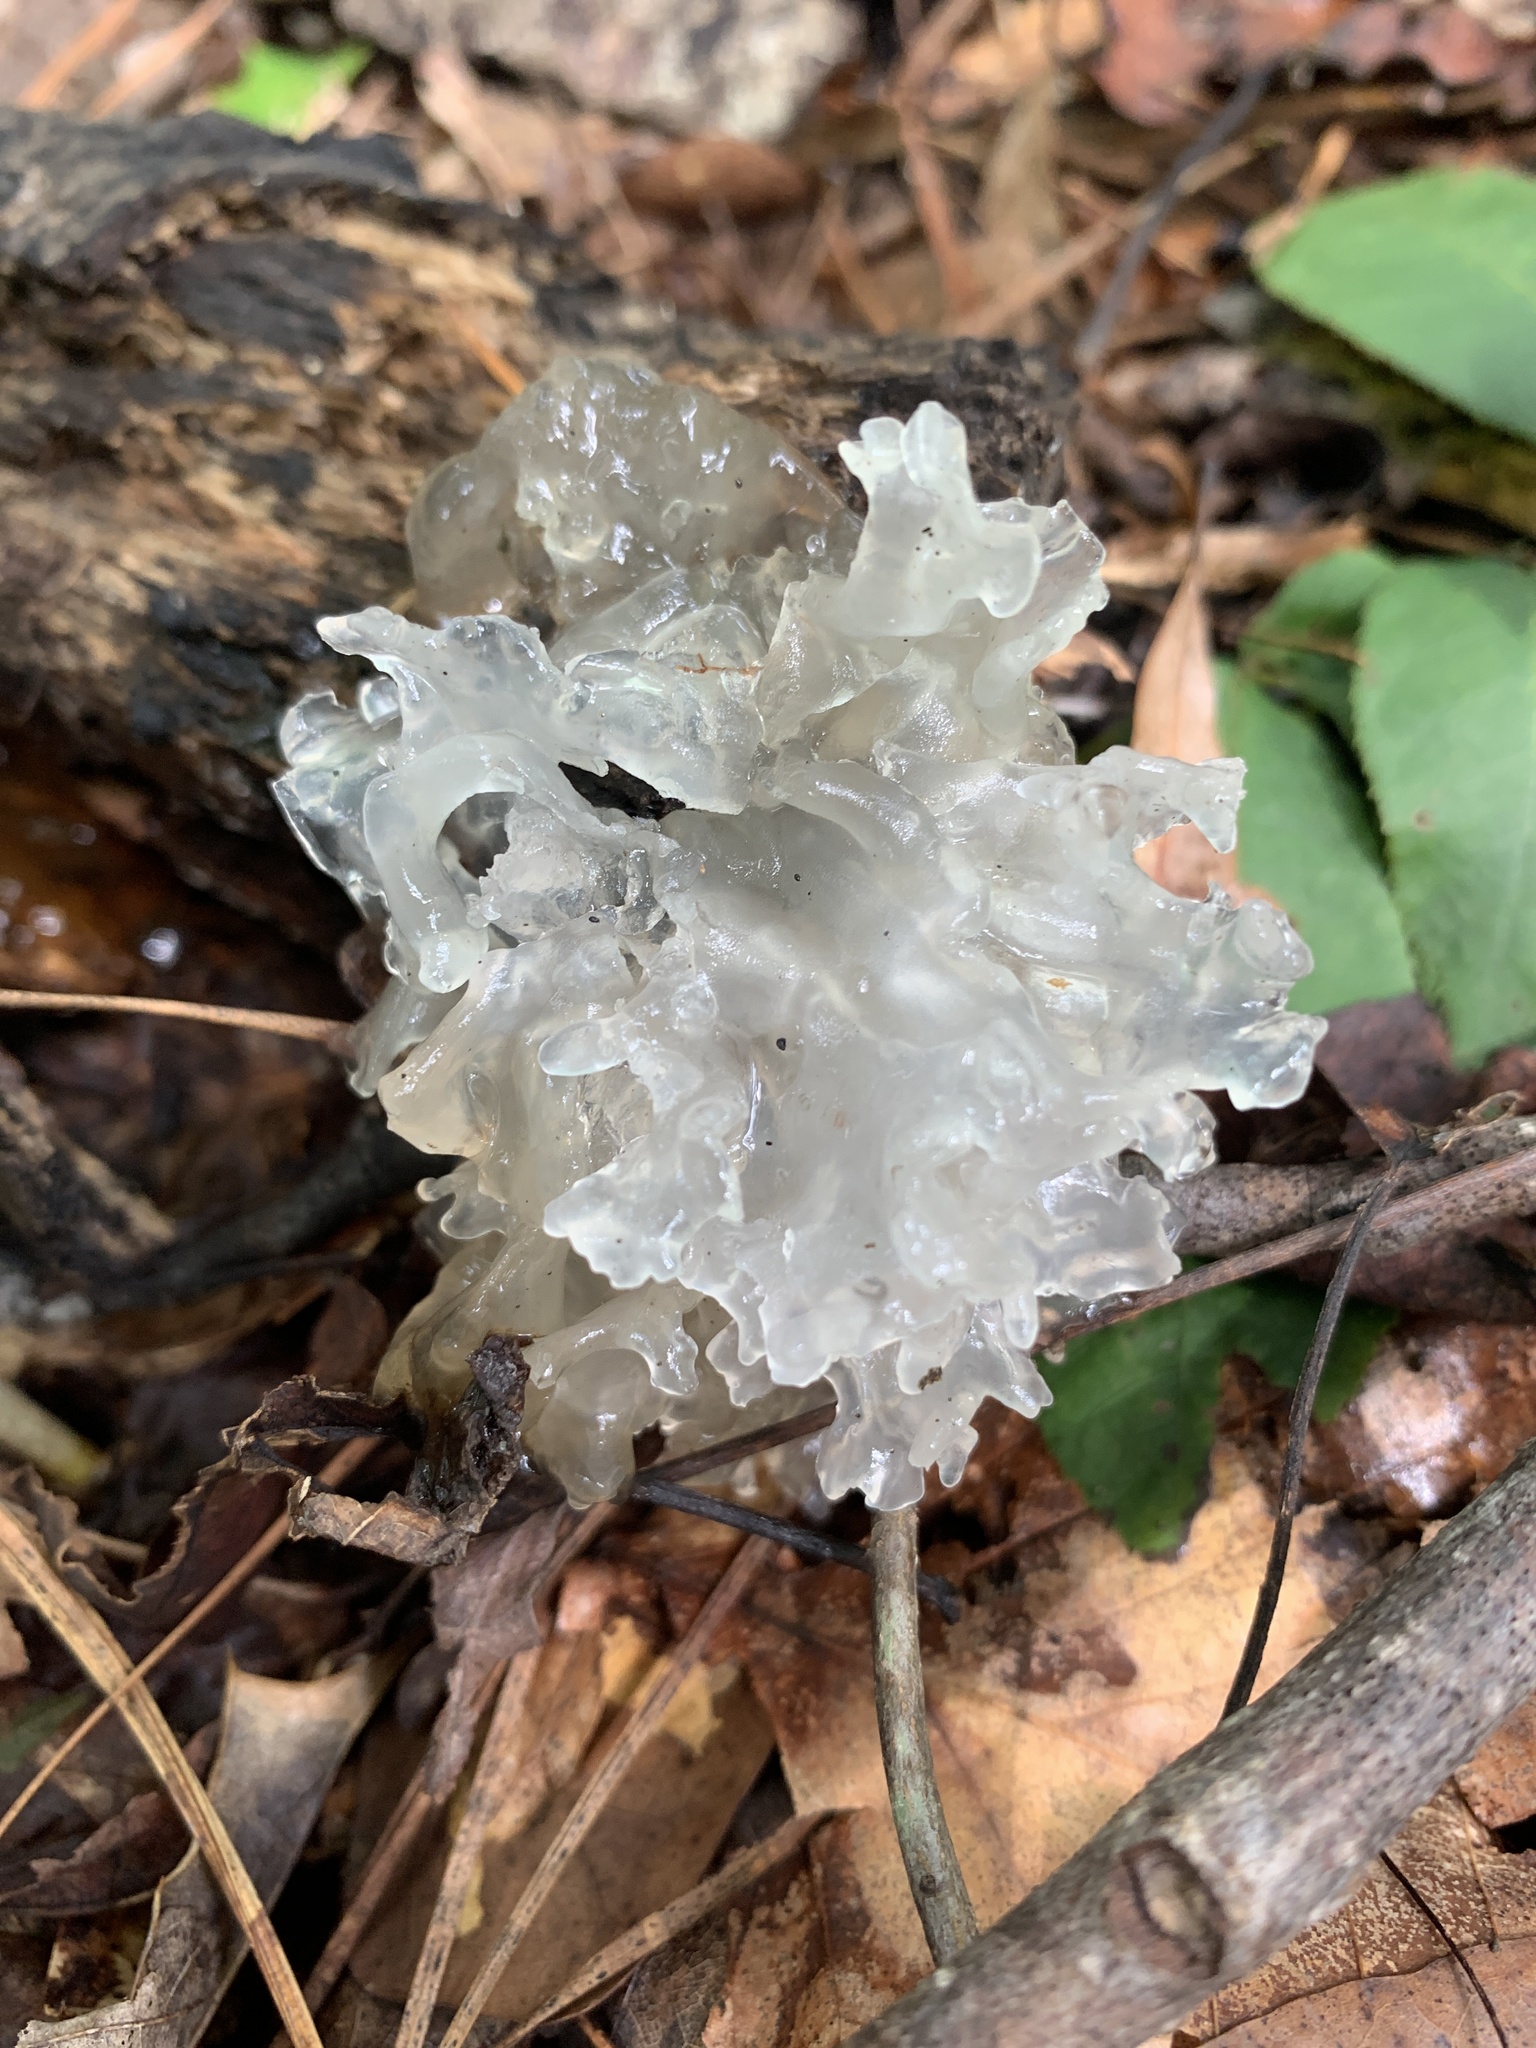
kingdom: Fungi
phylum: Basidiomycota
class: Tremellomycetes
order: Tremellales
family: Tremellaceae
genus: Tremella
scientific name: Tremella fuciformis
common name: Snow fungus
